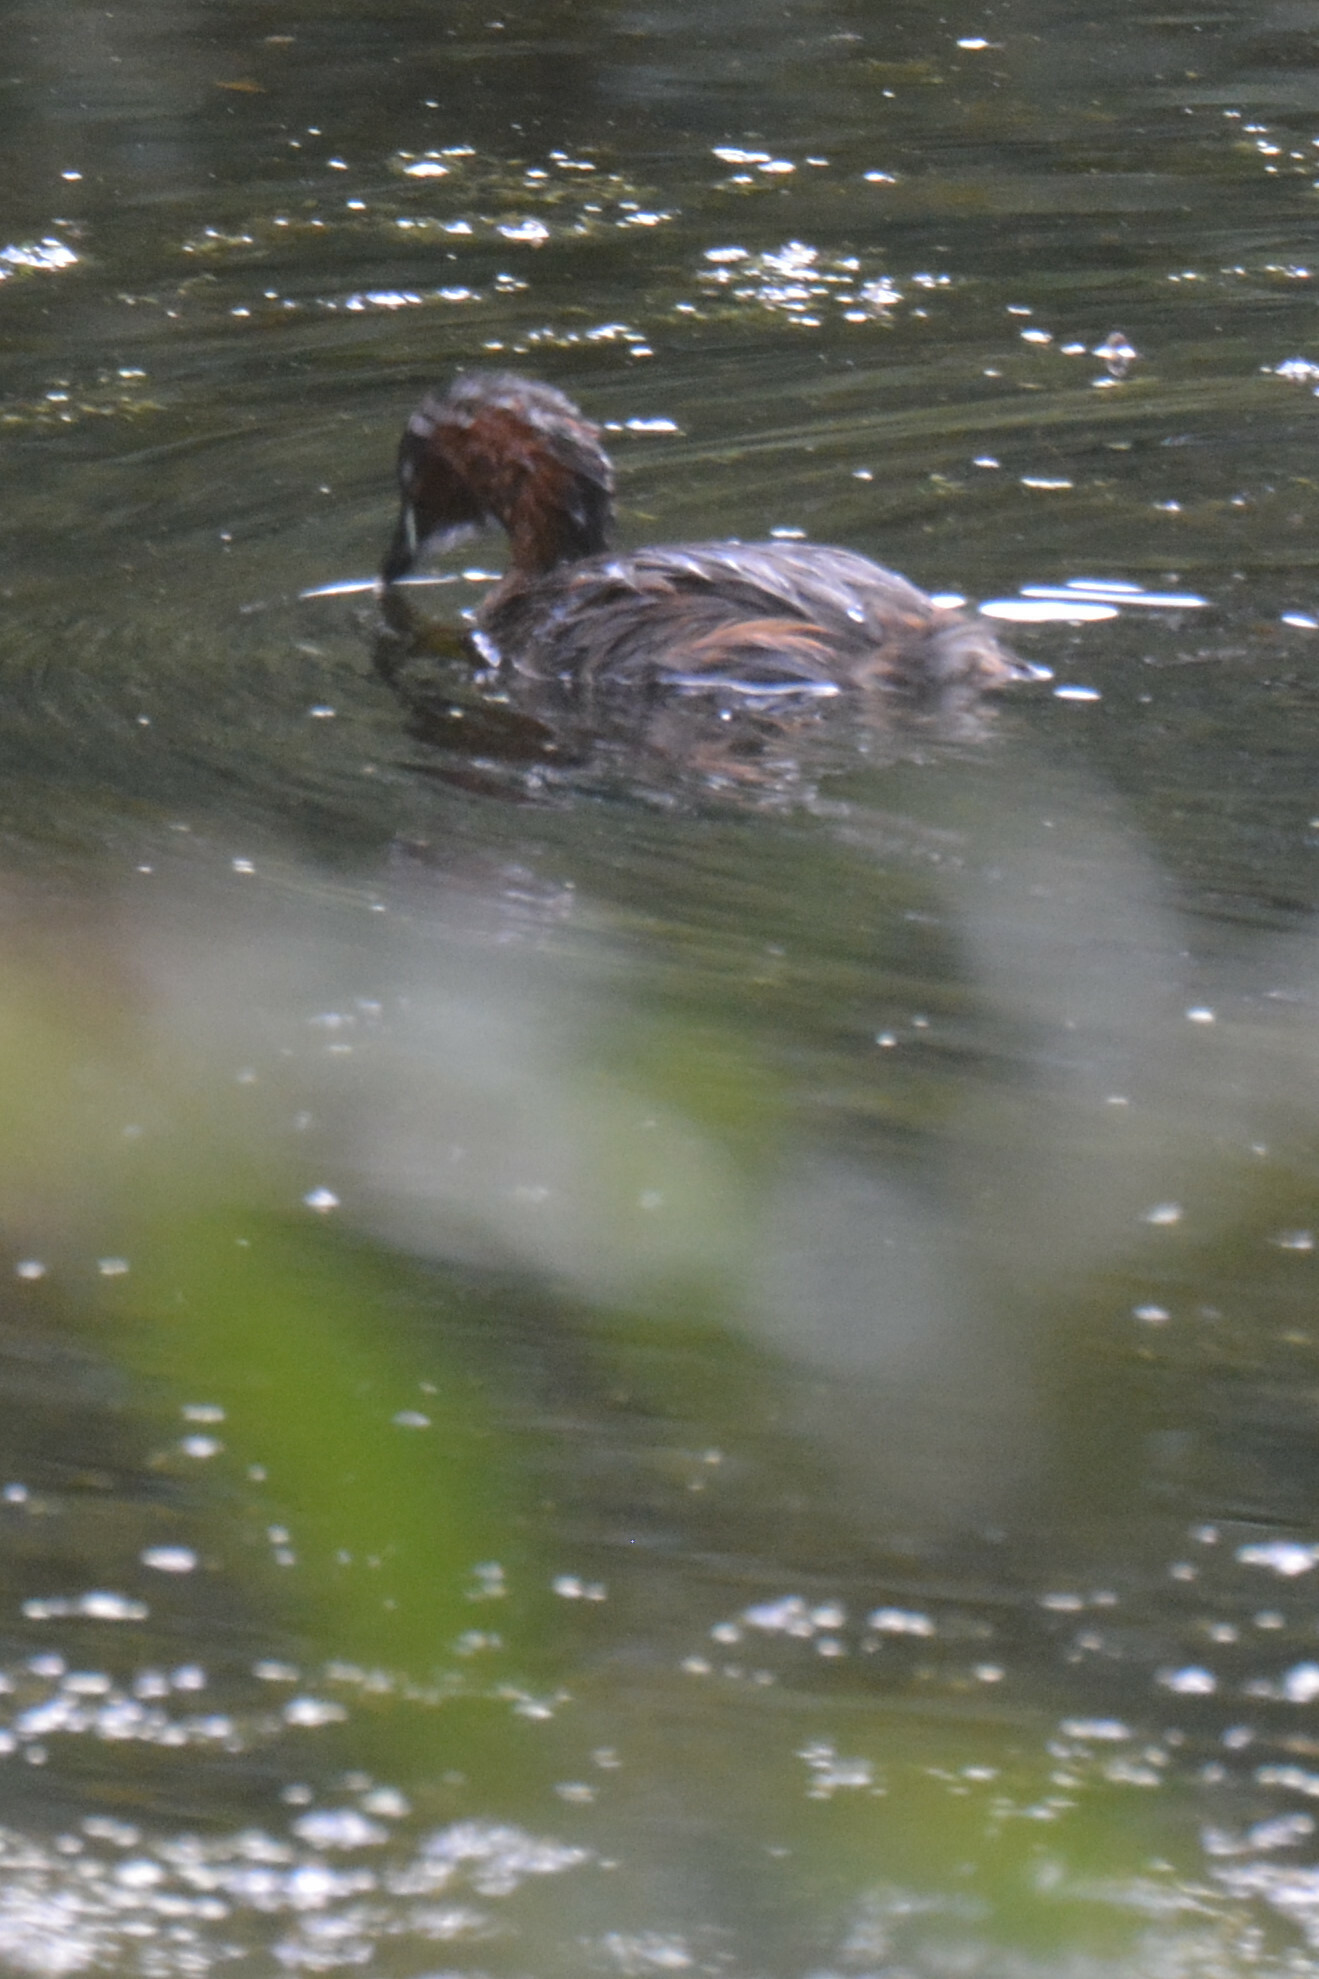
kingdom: Animalia
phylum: Chordata
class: Aves
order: Podicipediformes
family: Podicipedidae
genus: Tachybaptus
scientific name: Tachybaptus ruficollis
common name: Little grebe
